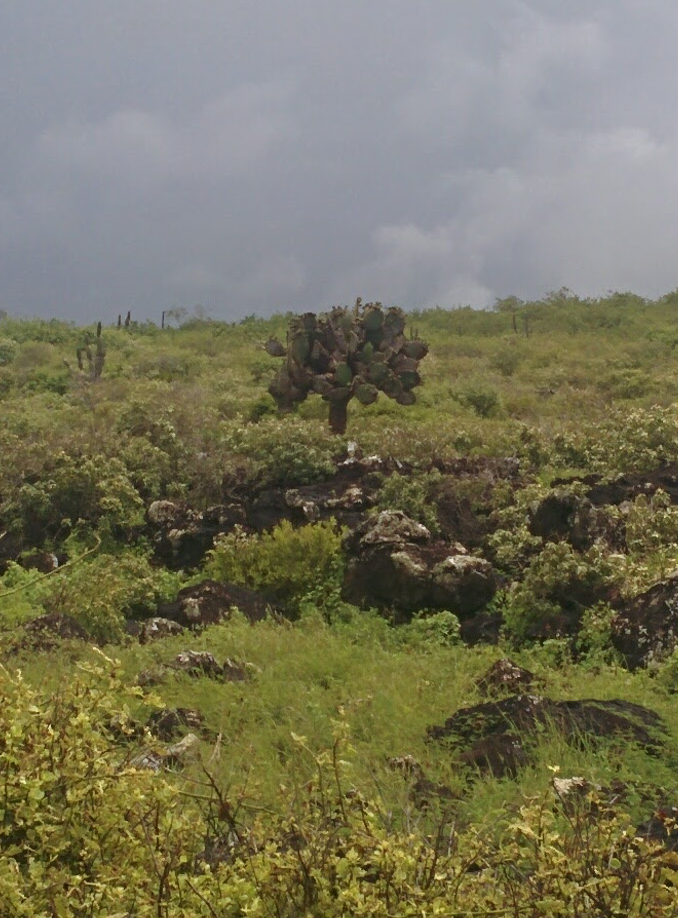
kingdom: Plantae
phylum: Tracheophyta
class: Magnoliopsida
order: Caryophyllales
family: Cactaceae
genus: Opuntia
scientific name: Opuntia galapageia
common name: Galápagos prickly pear
